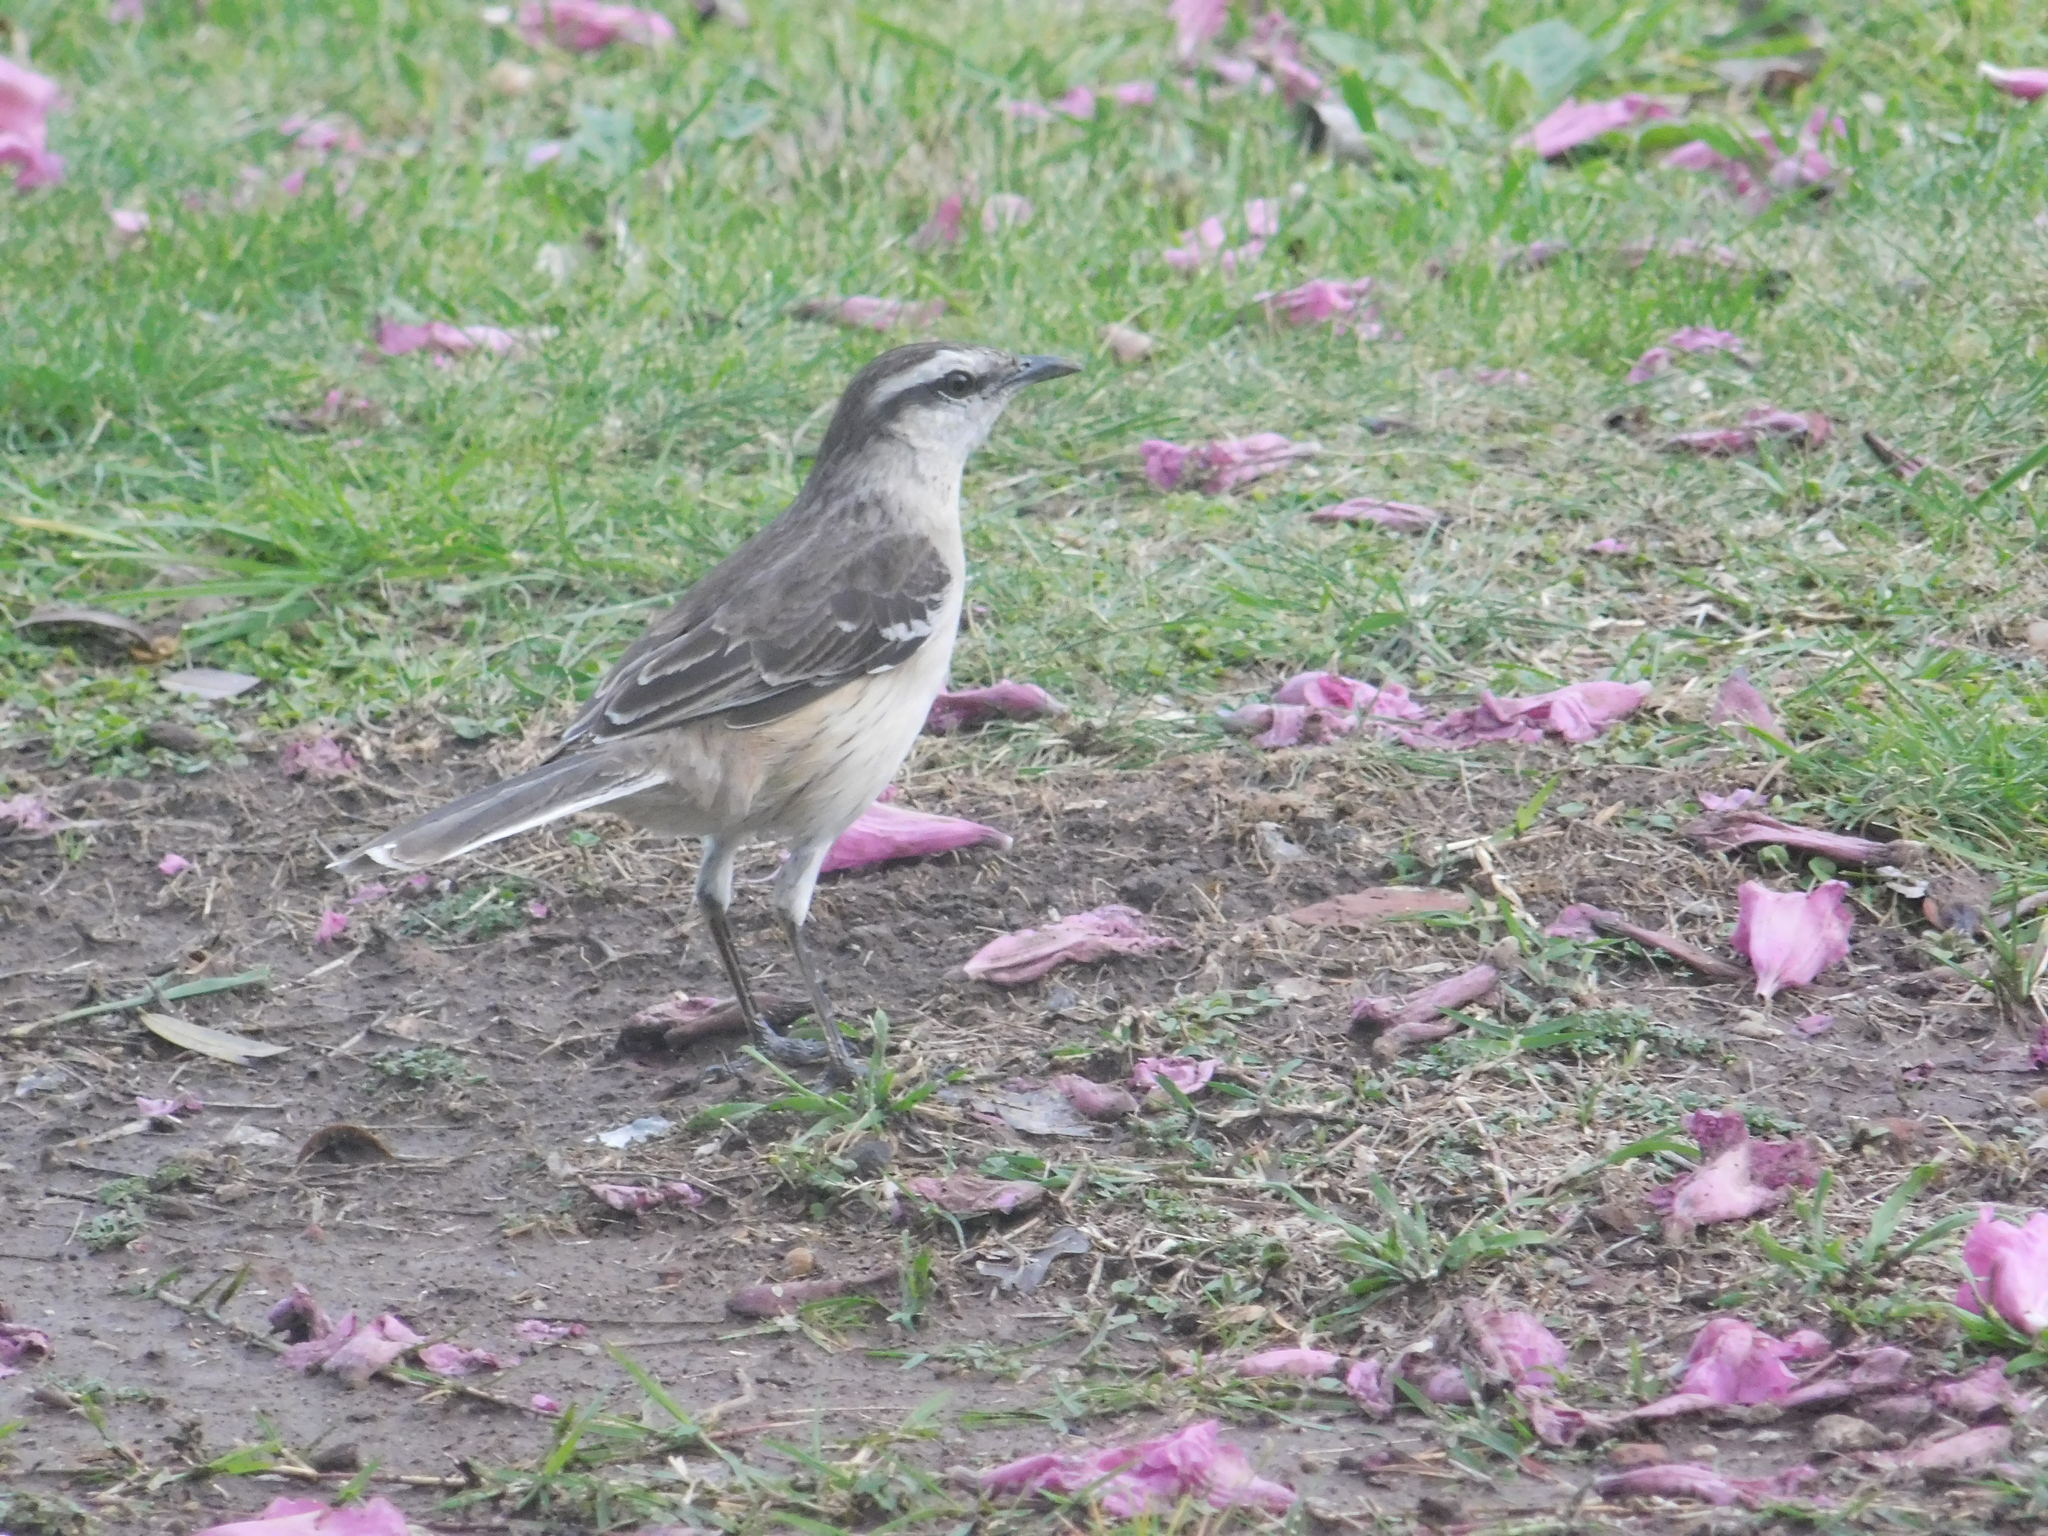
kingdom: Animalia
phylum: Chordata
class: Aves
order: Passeriformes
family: Mimidae
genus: Mimus
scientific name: Mimus saturninus
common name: Chalk-browed mockingbird
